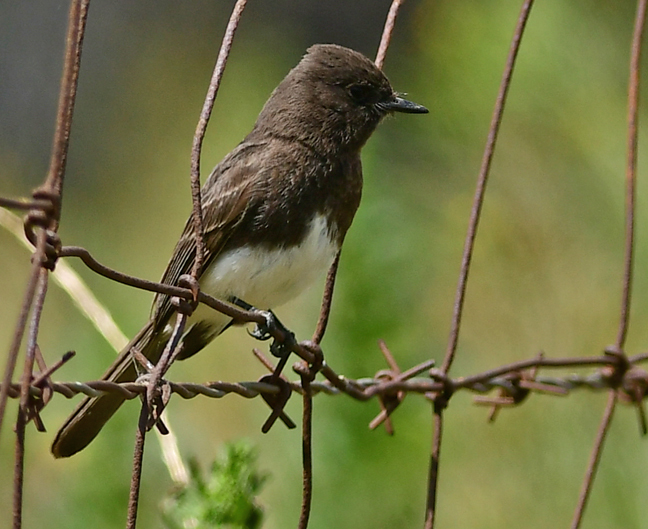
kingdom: Animalia
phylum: Chordata
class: Aves
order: Passeriformes
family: Tyrannidae
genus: Sayornis
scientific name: Sayornis nigricans
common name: Black phoebe
